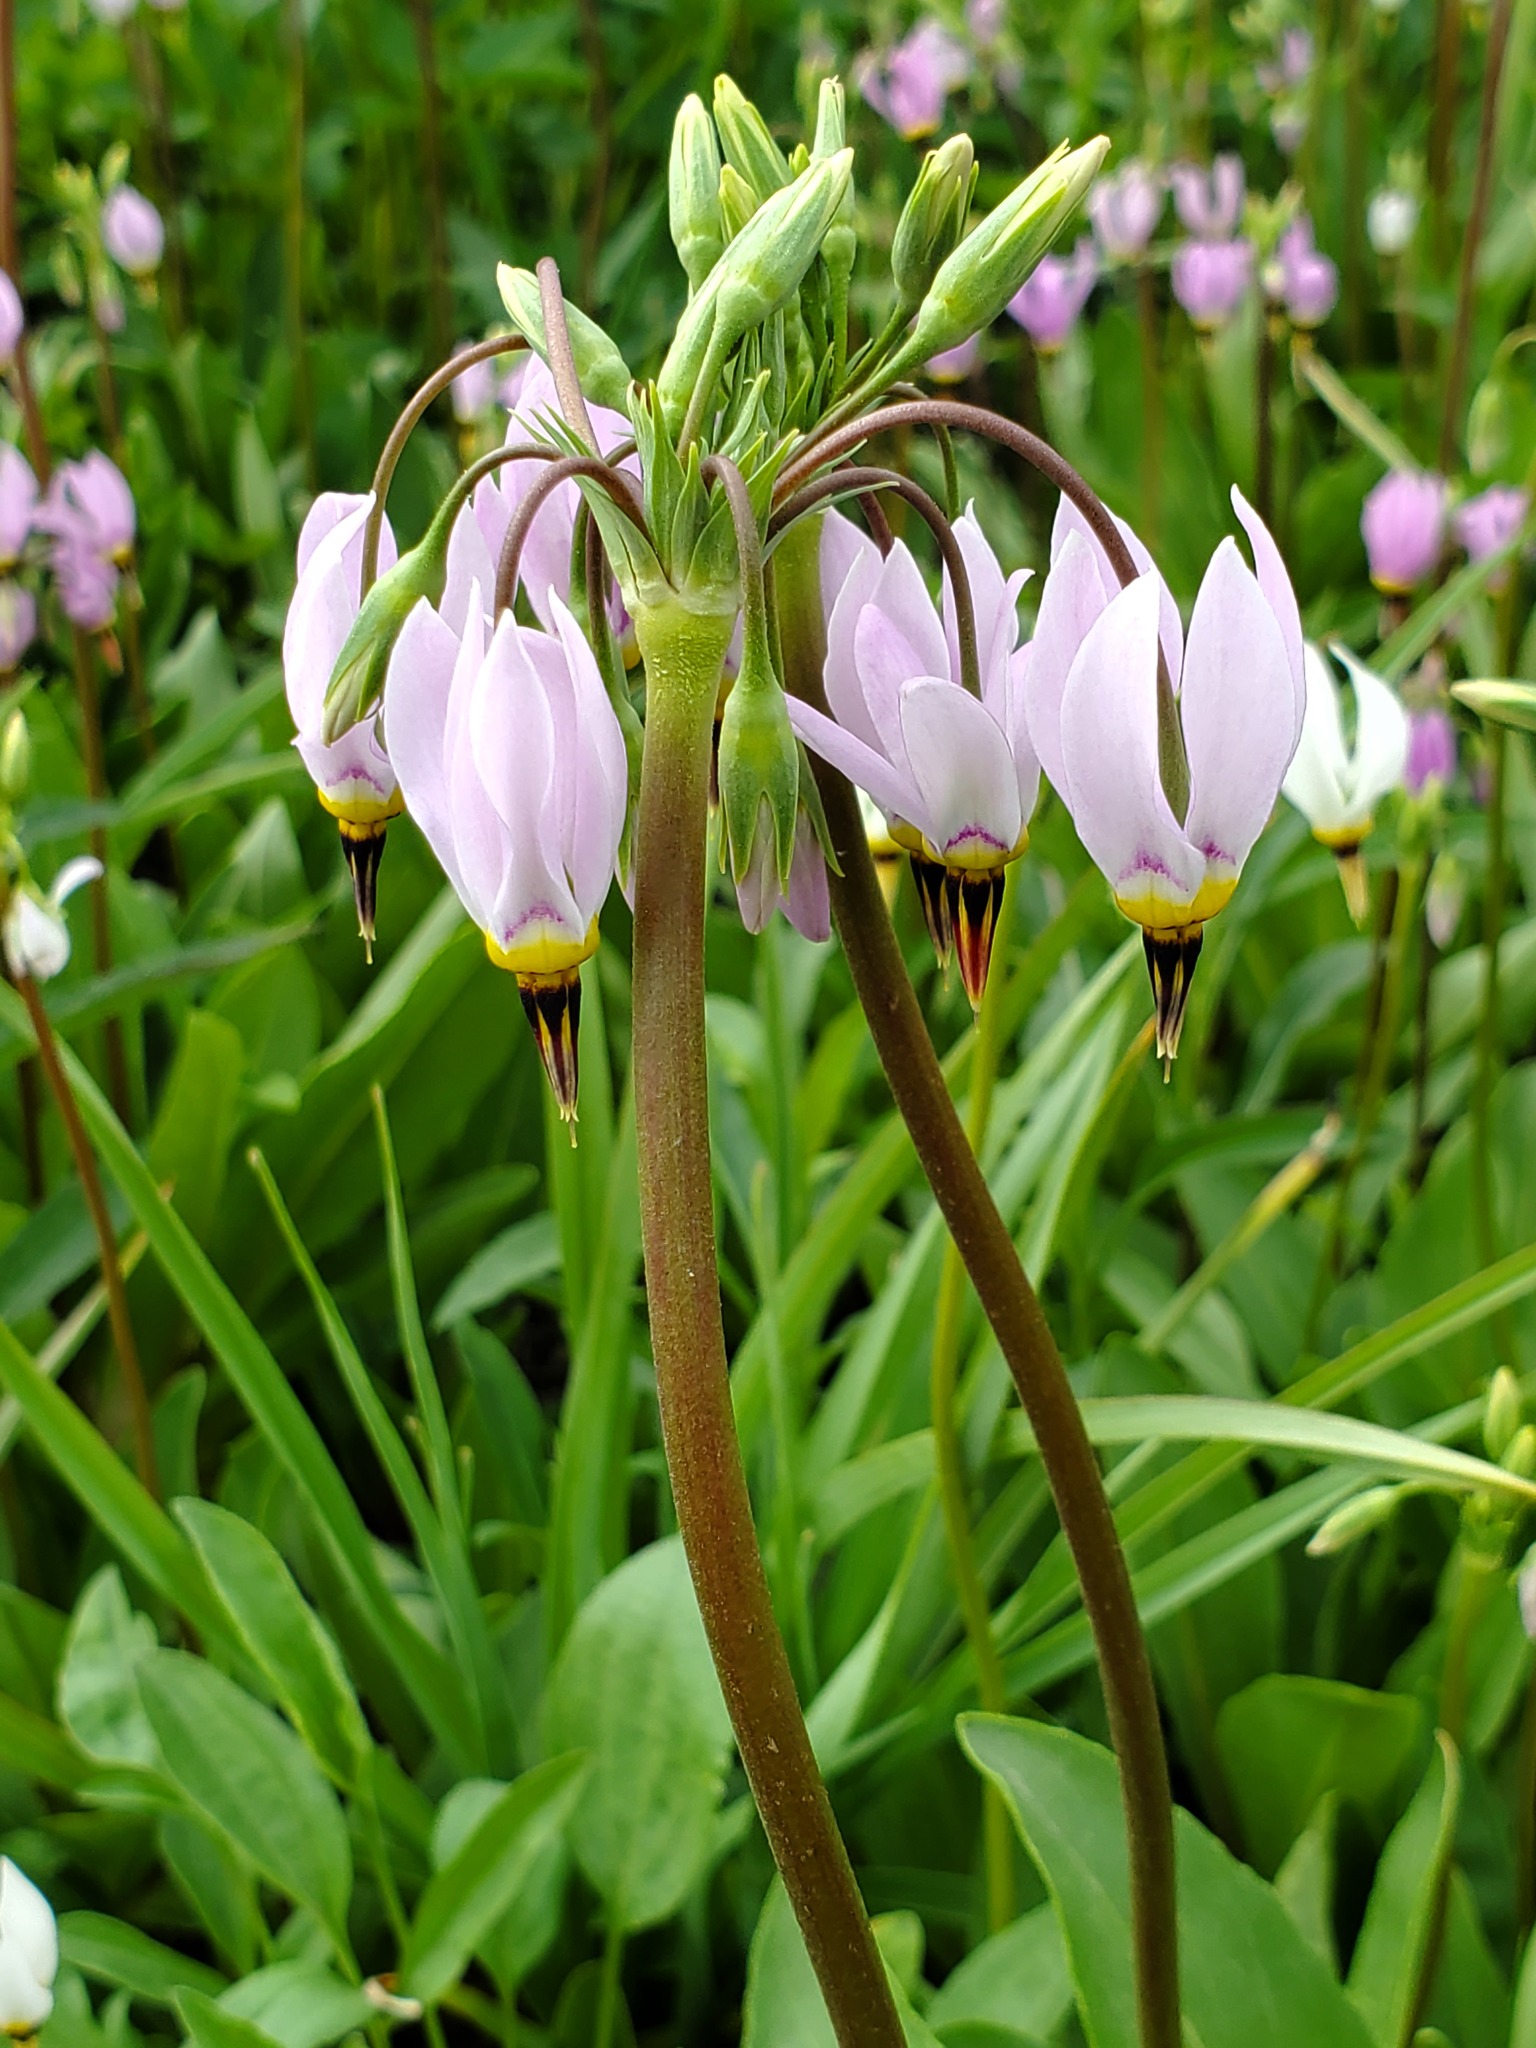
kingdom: Plantae
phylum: Tracheophyta
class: Magnoliopsida
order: Ericales
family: Primulaceae
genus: Dodecatheon
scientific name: Dodecatheon meadia
